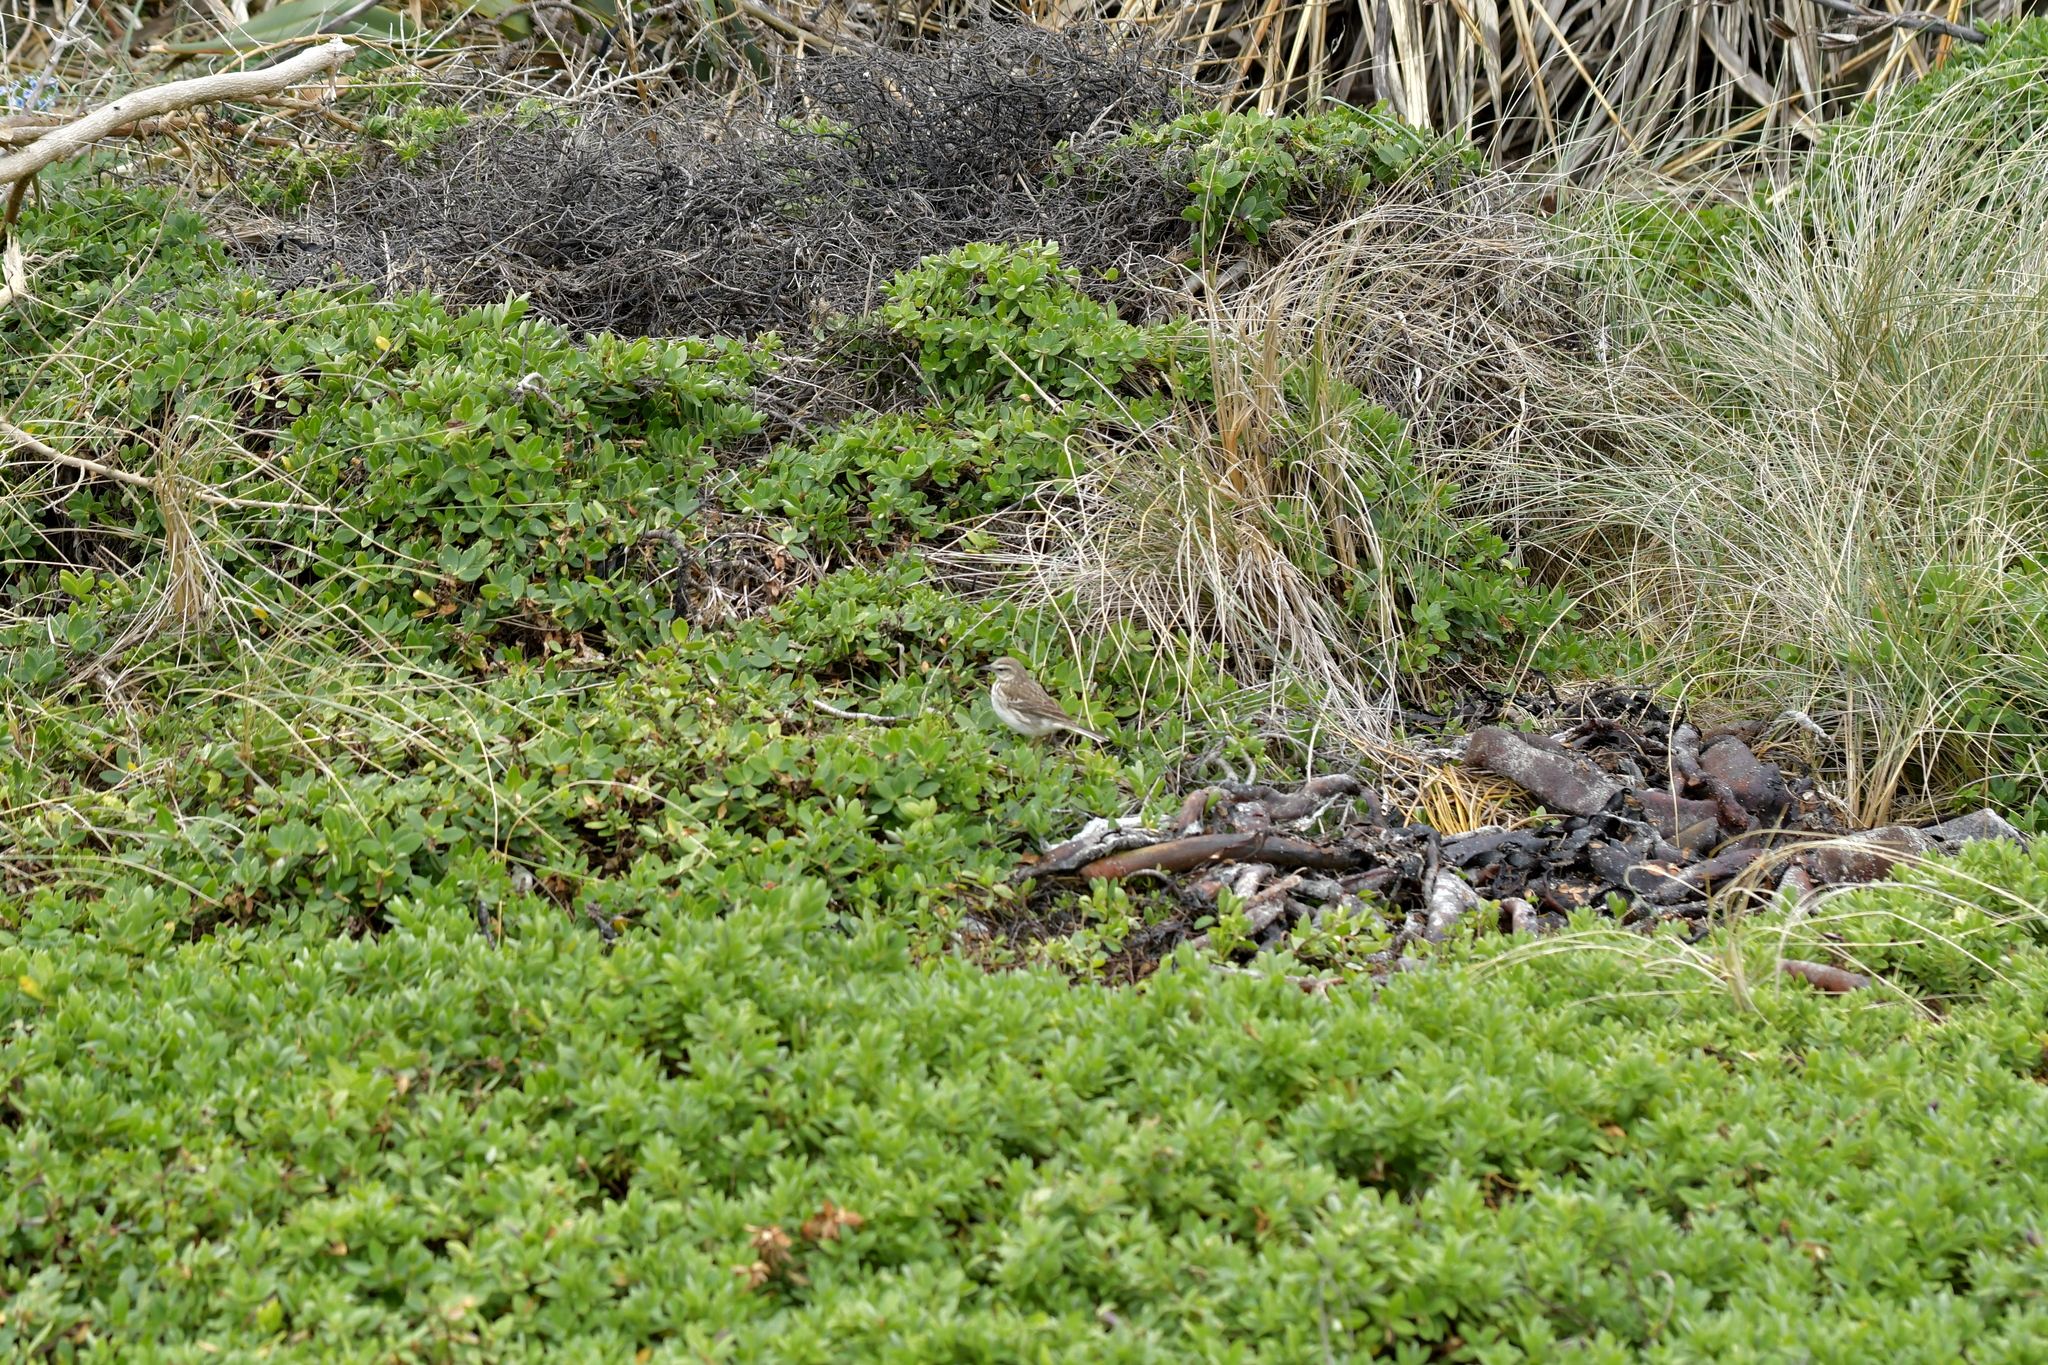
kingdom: Animalia
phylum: Chordata
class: Aves
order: Passeriformes
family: Motacillidae
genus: Anthus
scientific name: Anthus novaeseelandiae
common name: New zealand pipit
